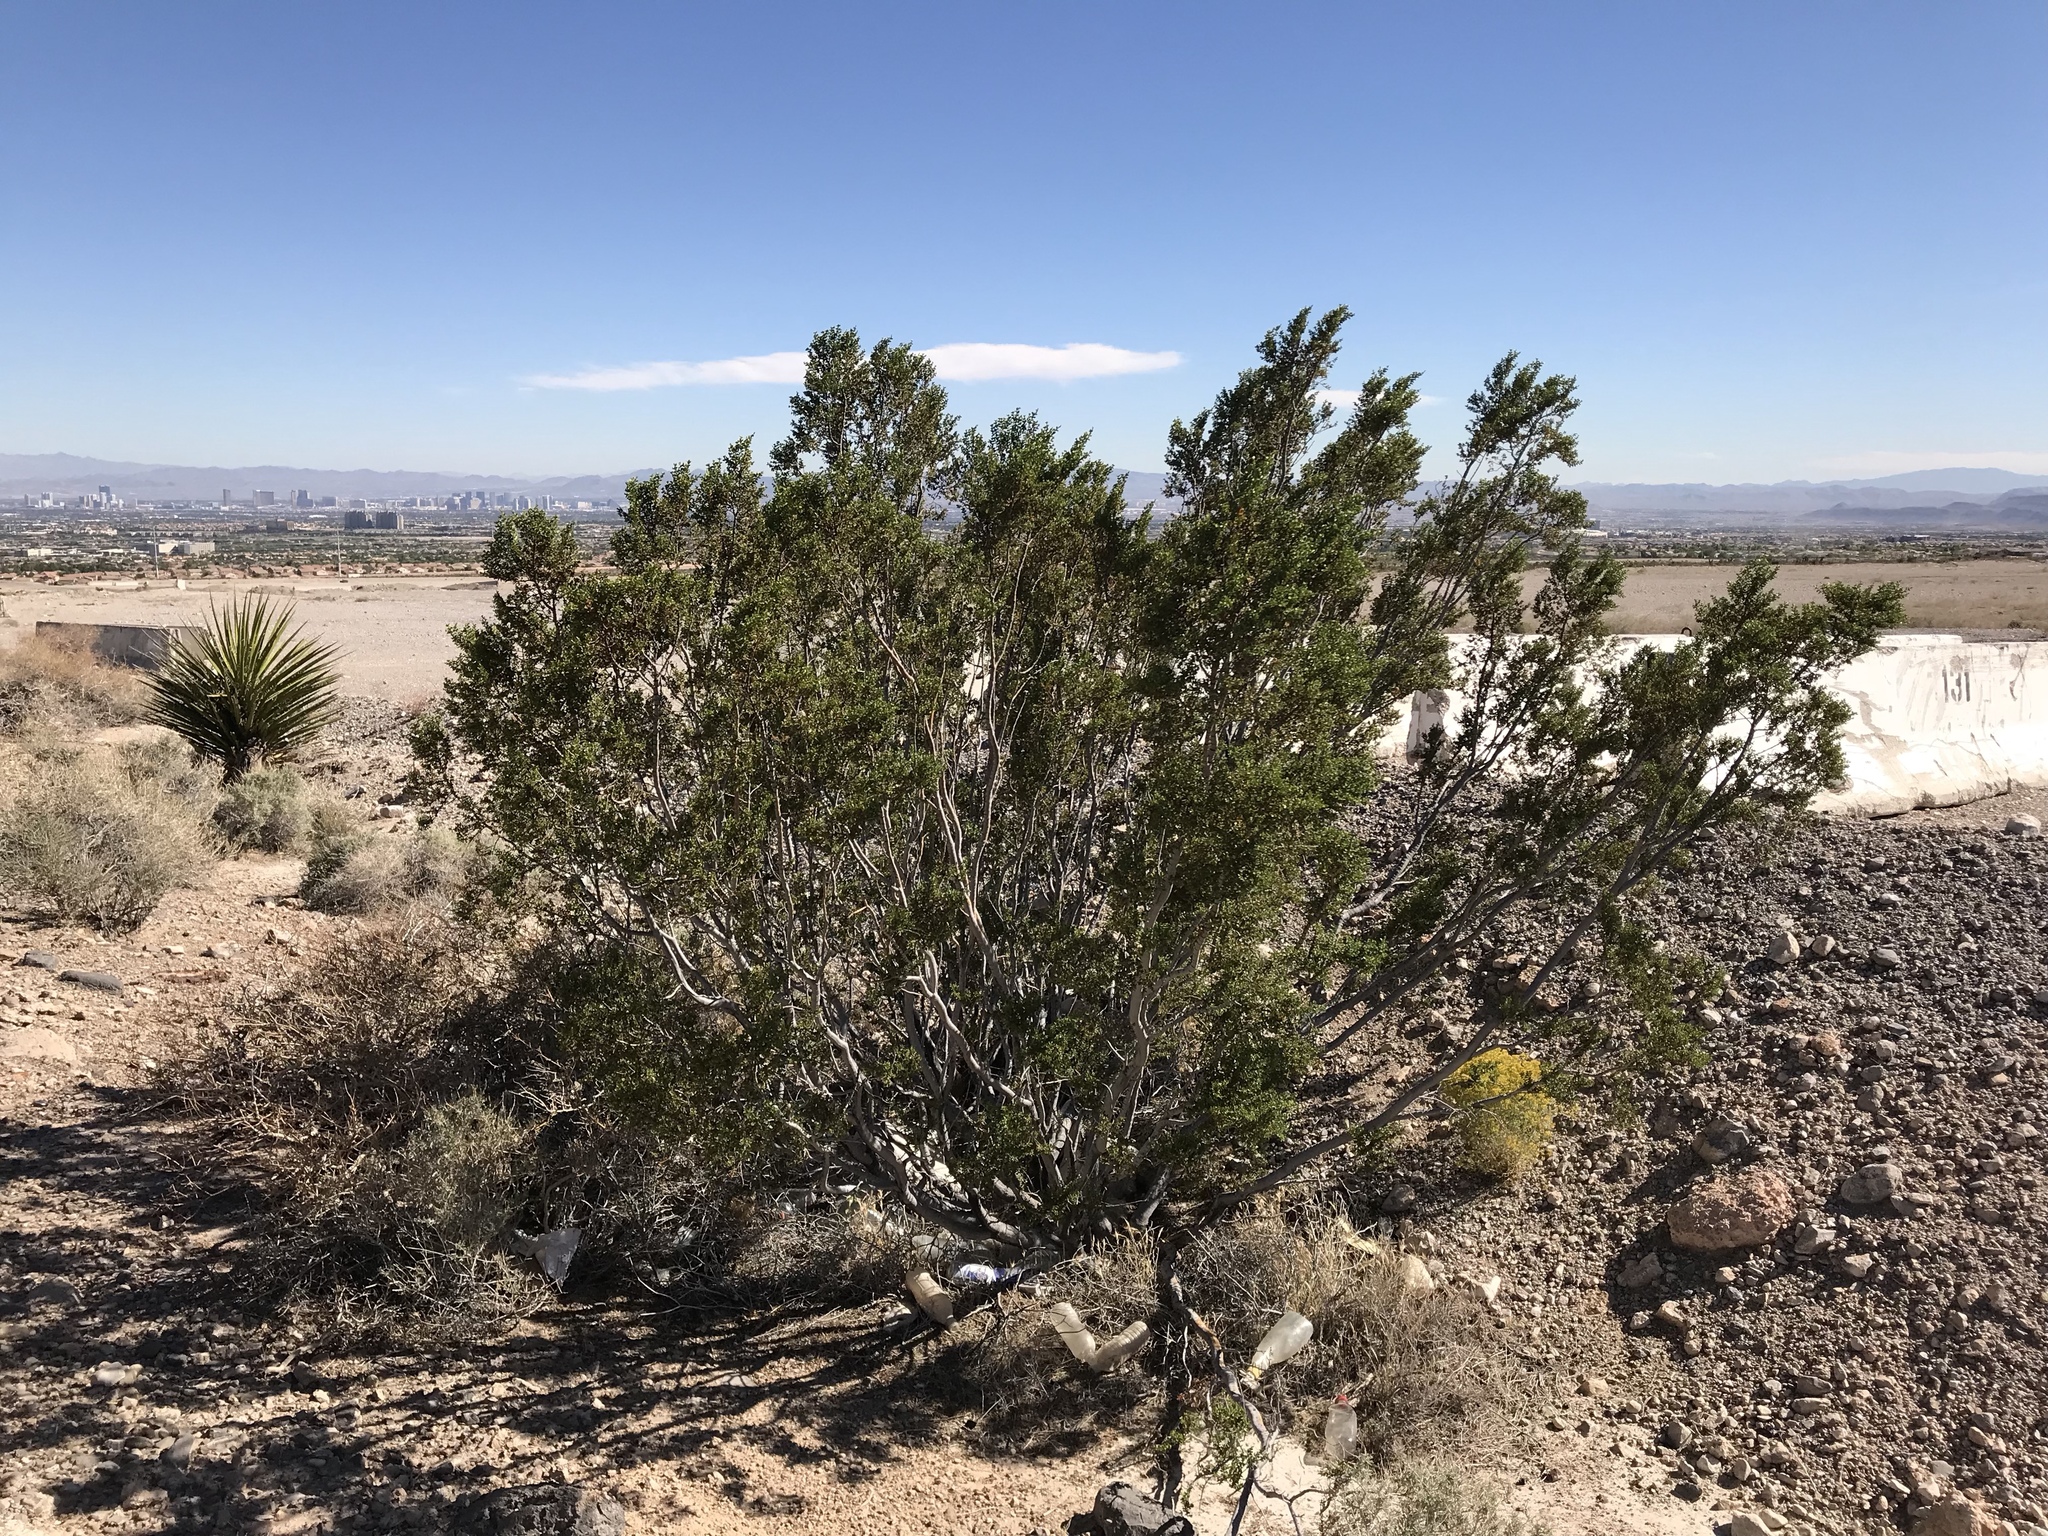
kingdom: Plantae
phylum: Tracheophyta
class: Magnoliopsida
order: Zygophyllales
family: Zygophyllaceae
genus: Larrea
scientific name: Larrea tridentata
